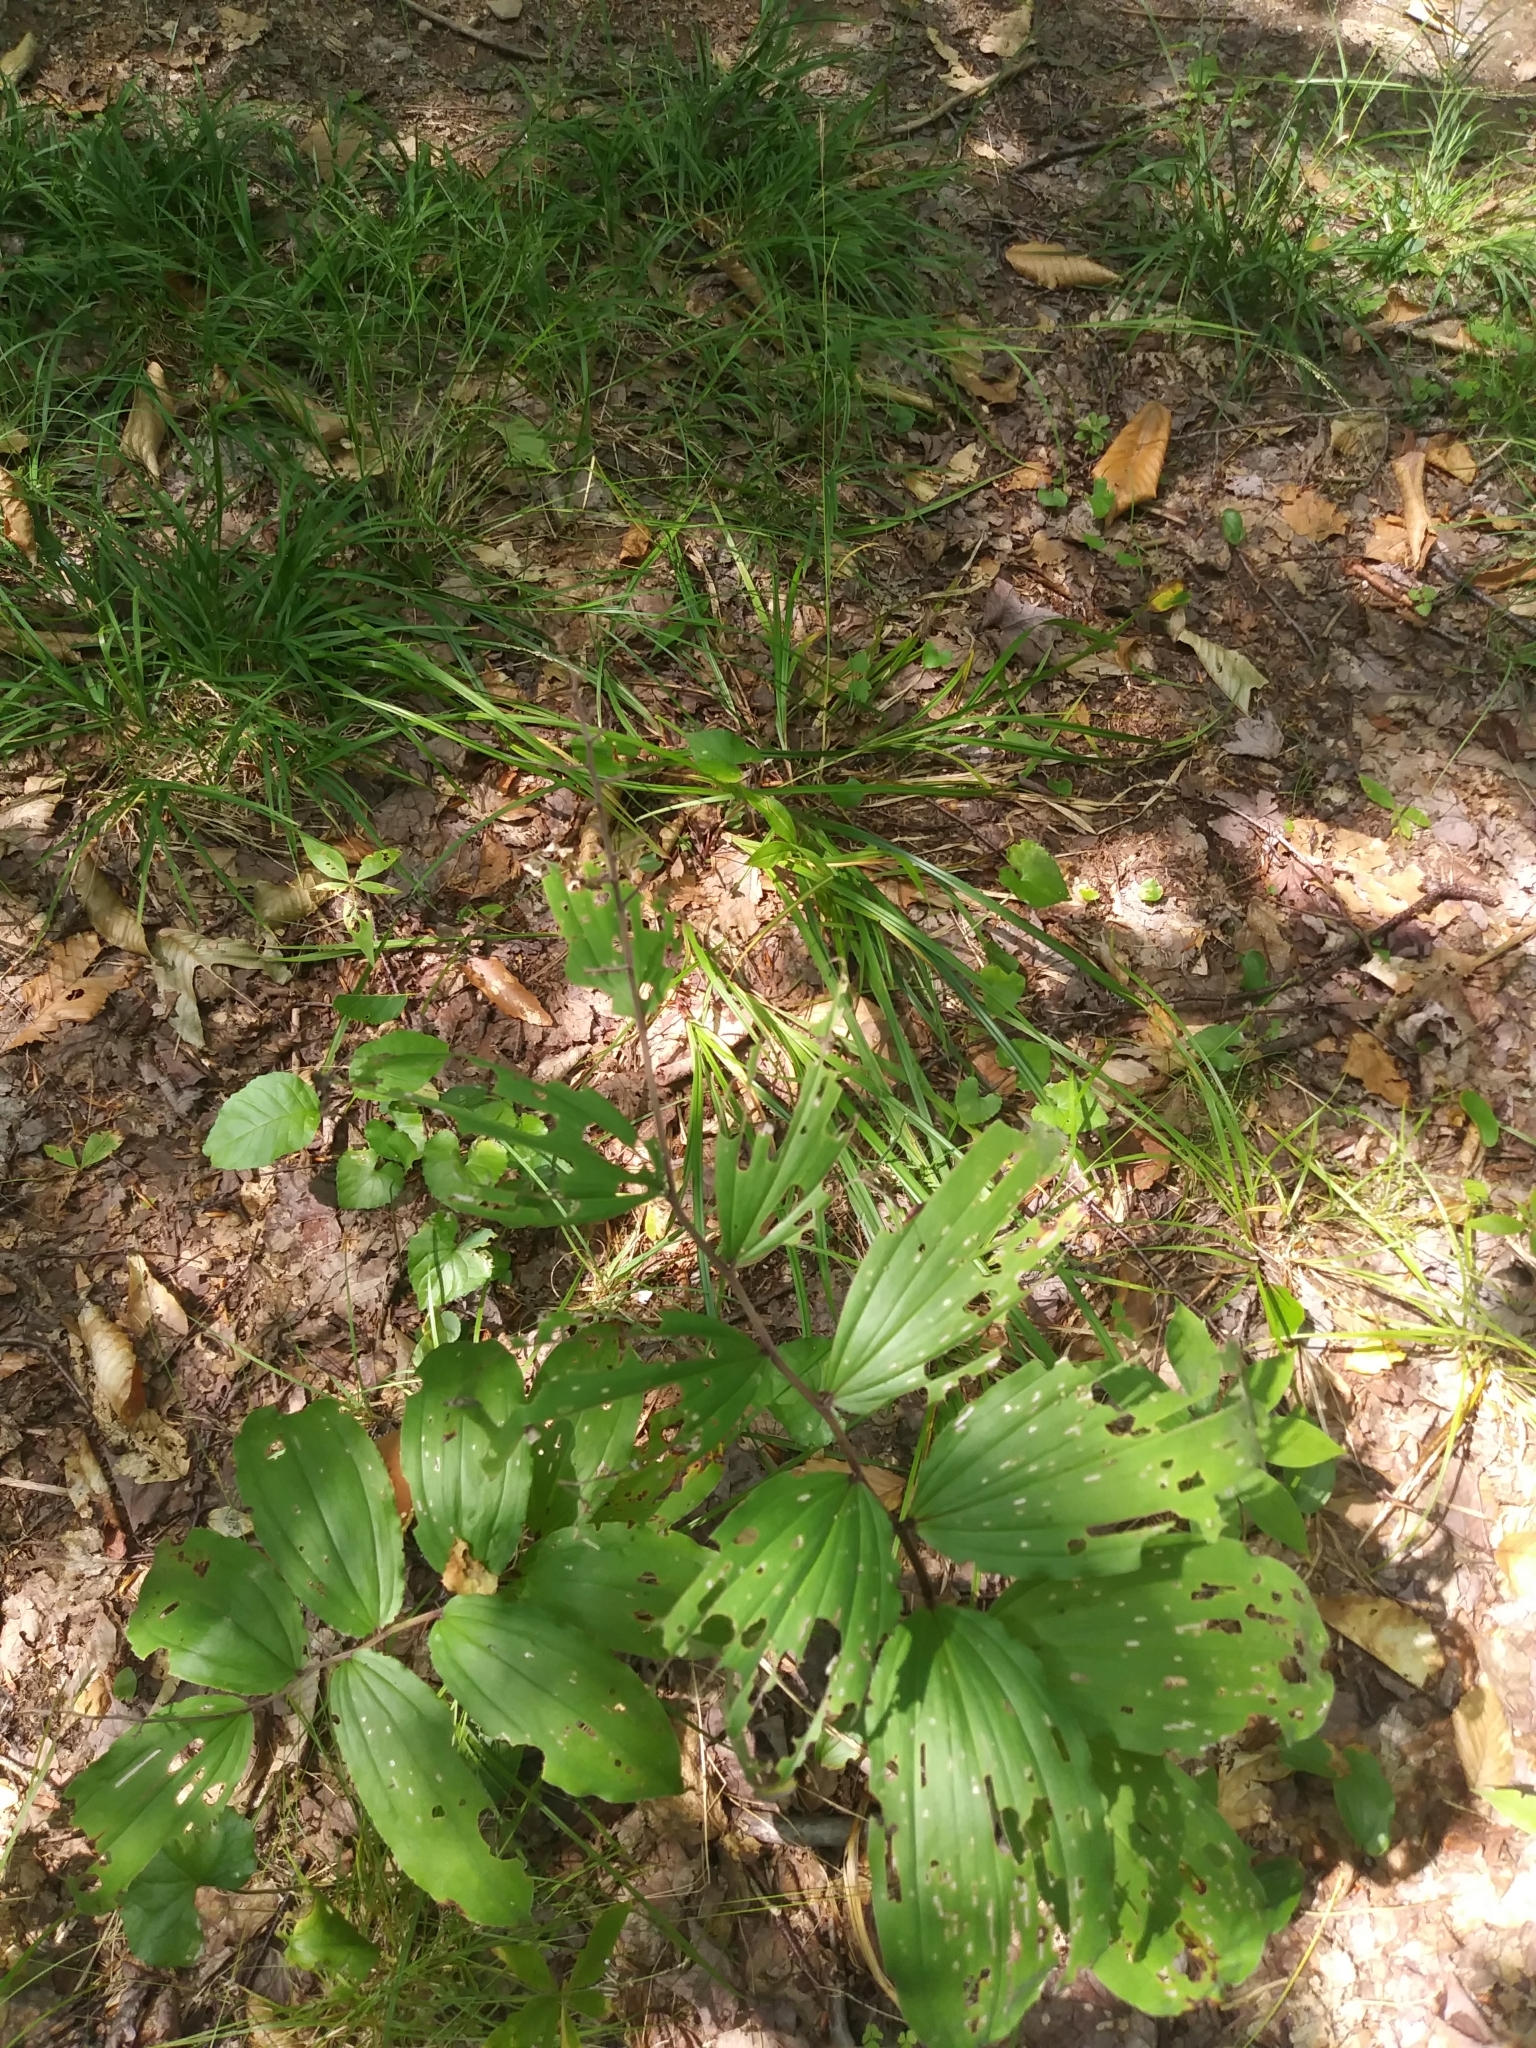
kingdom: Plantae
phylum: Tracheophyta
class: Liliopsida
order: Asparagales
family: Asparagaceae
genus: Maianthemum
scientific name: Maianthemum racemosum
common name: False spikenard
